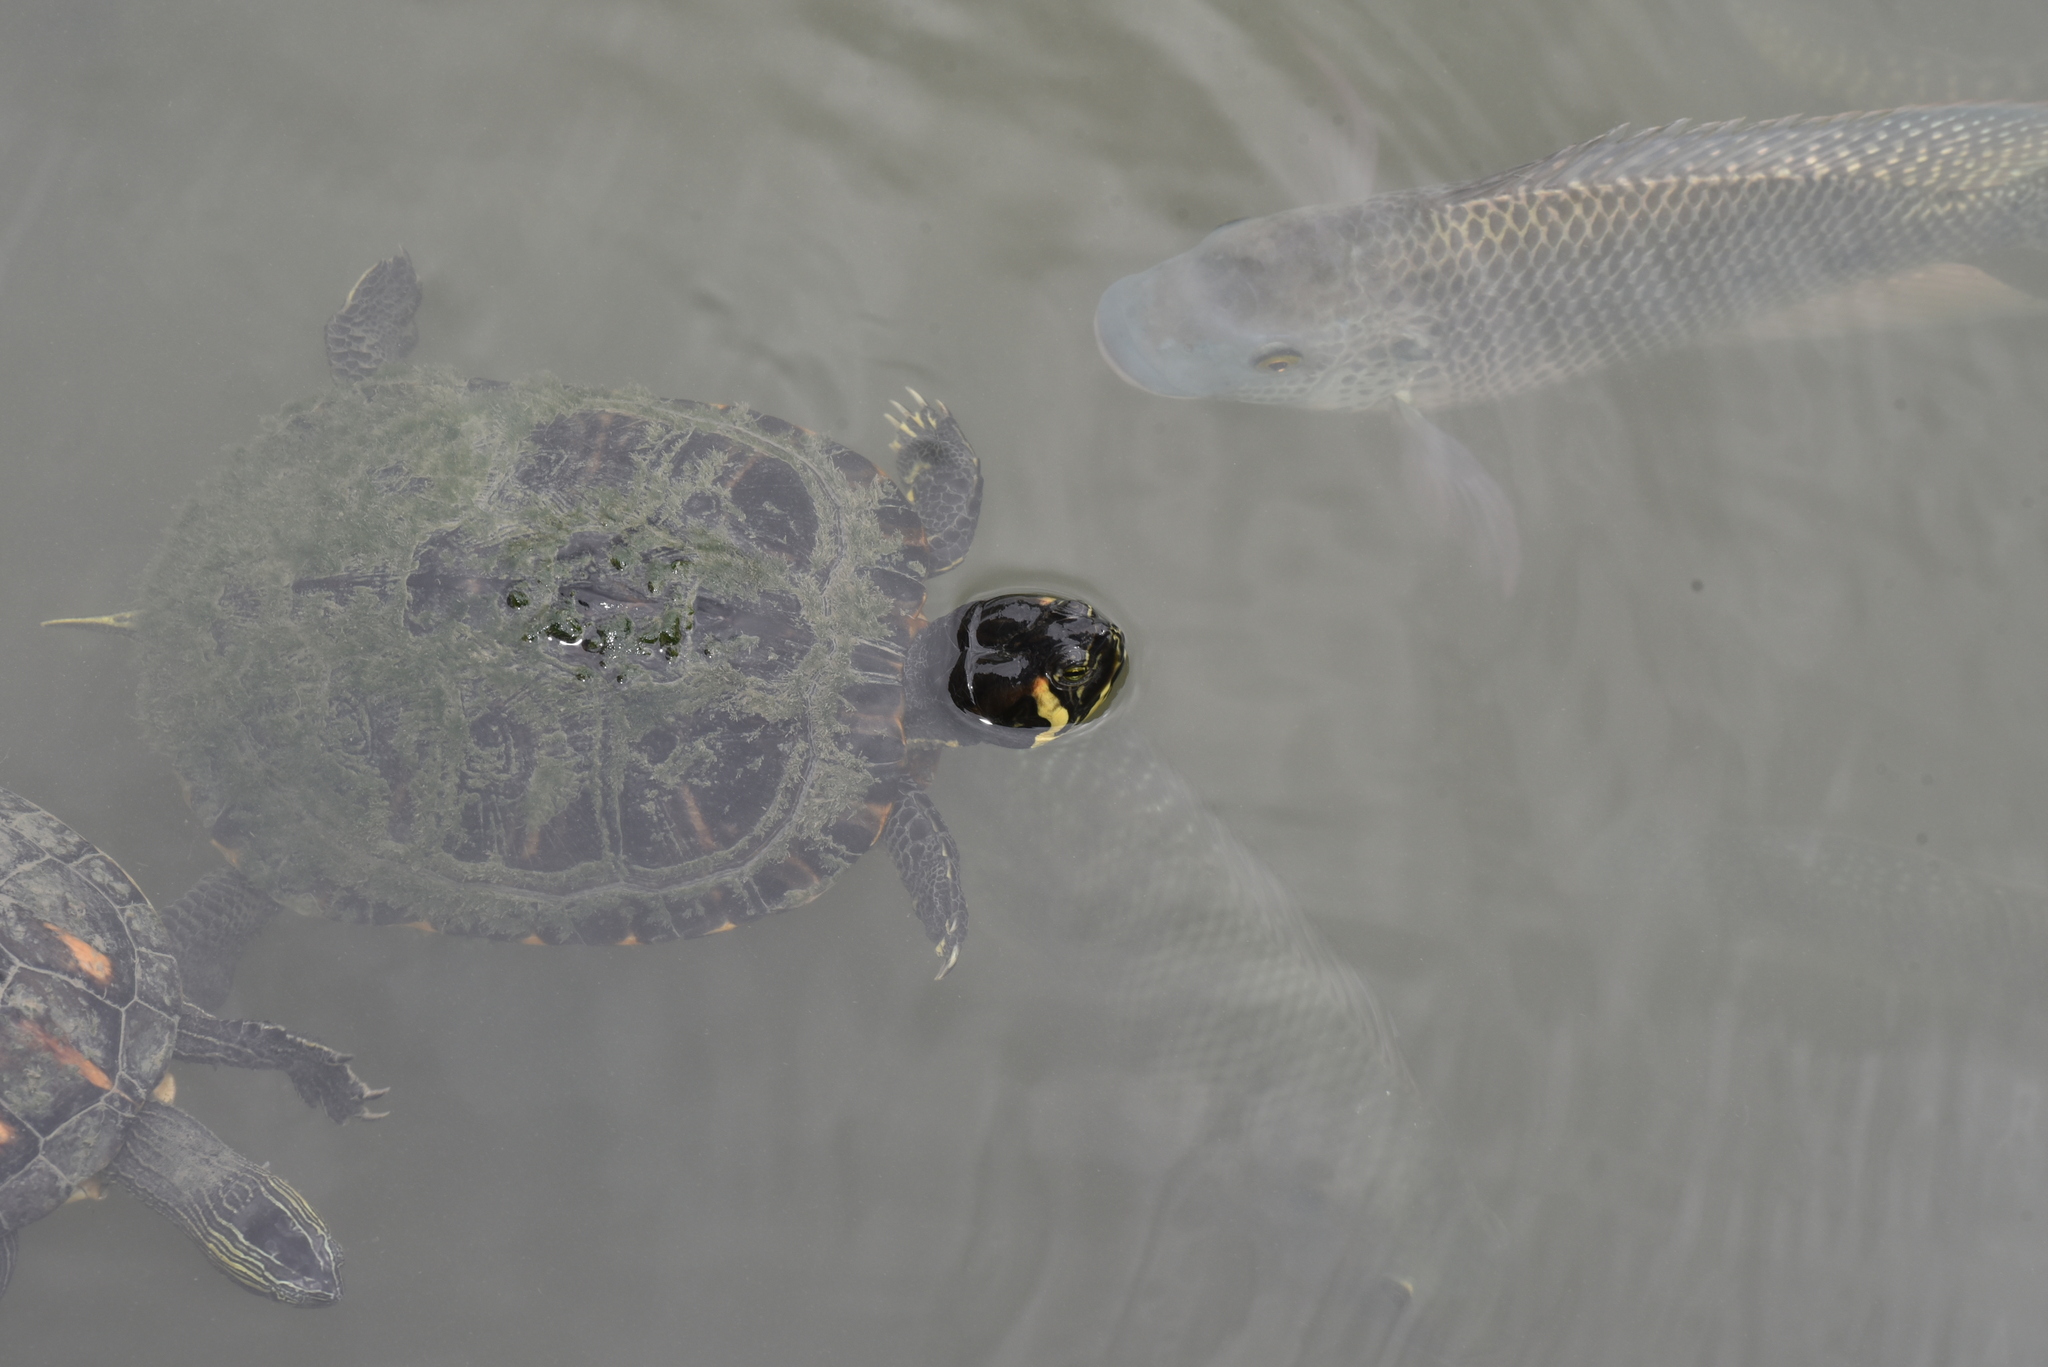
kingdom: Animalia
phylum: Chordata
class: Testudines
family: Emydidae
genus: Trachemys
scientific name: Trachemys scripta
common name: Slider
